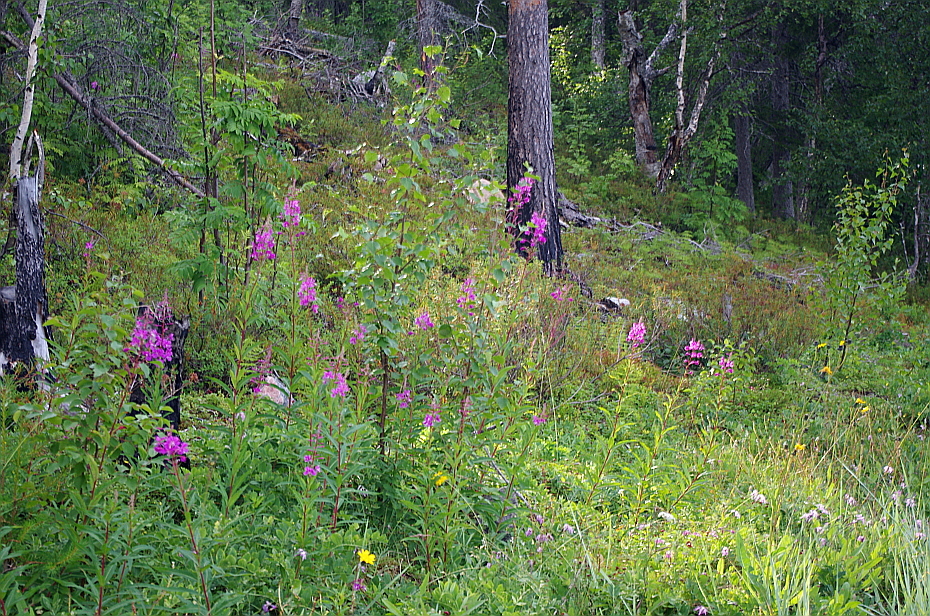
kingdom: Plantae
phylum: Tracheophyta
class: Magnoliopsida
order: Myrtales
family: Onagraceae
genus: Chamaenerion
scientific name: Chamaenerion angustifolium
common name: Fireweed
